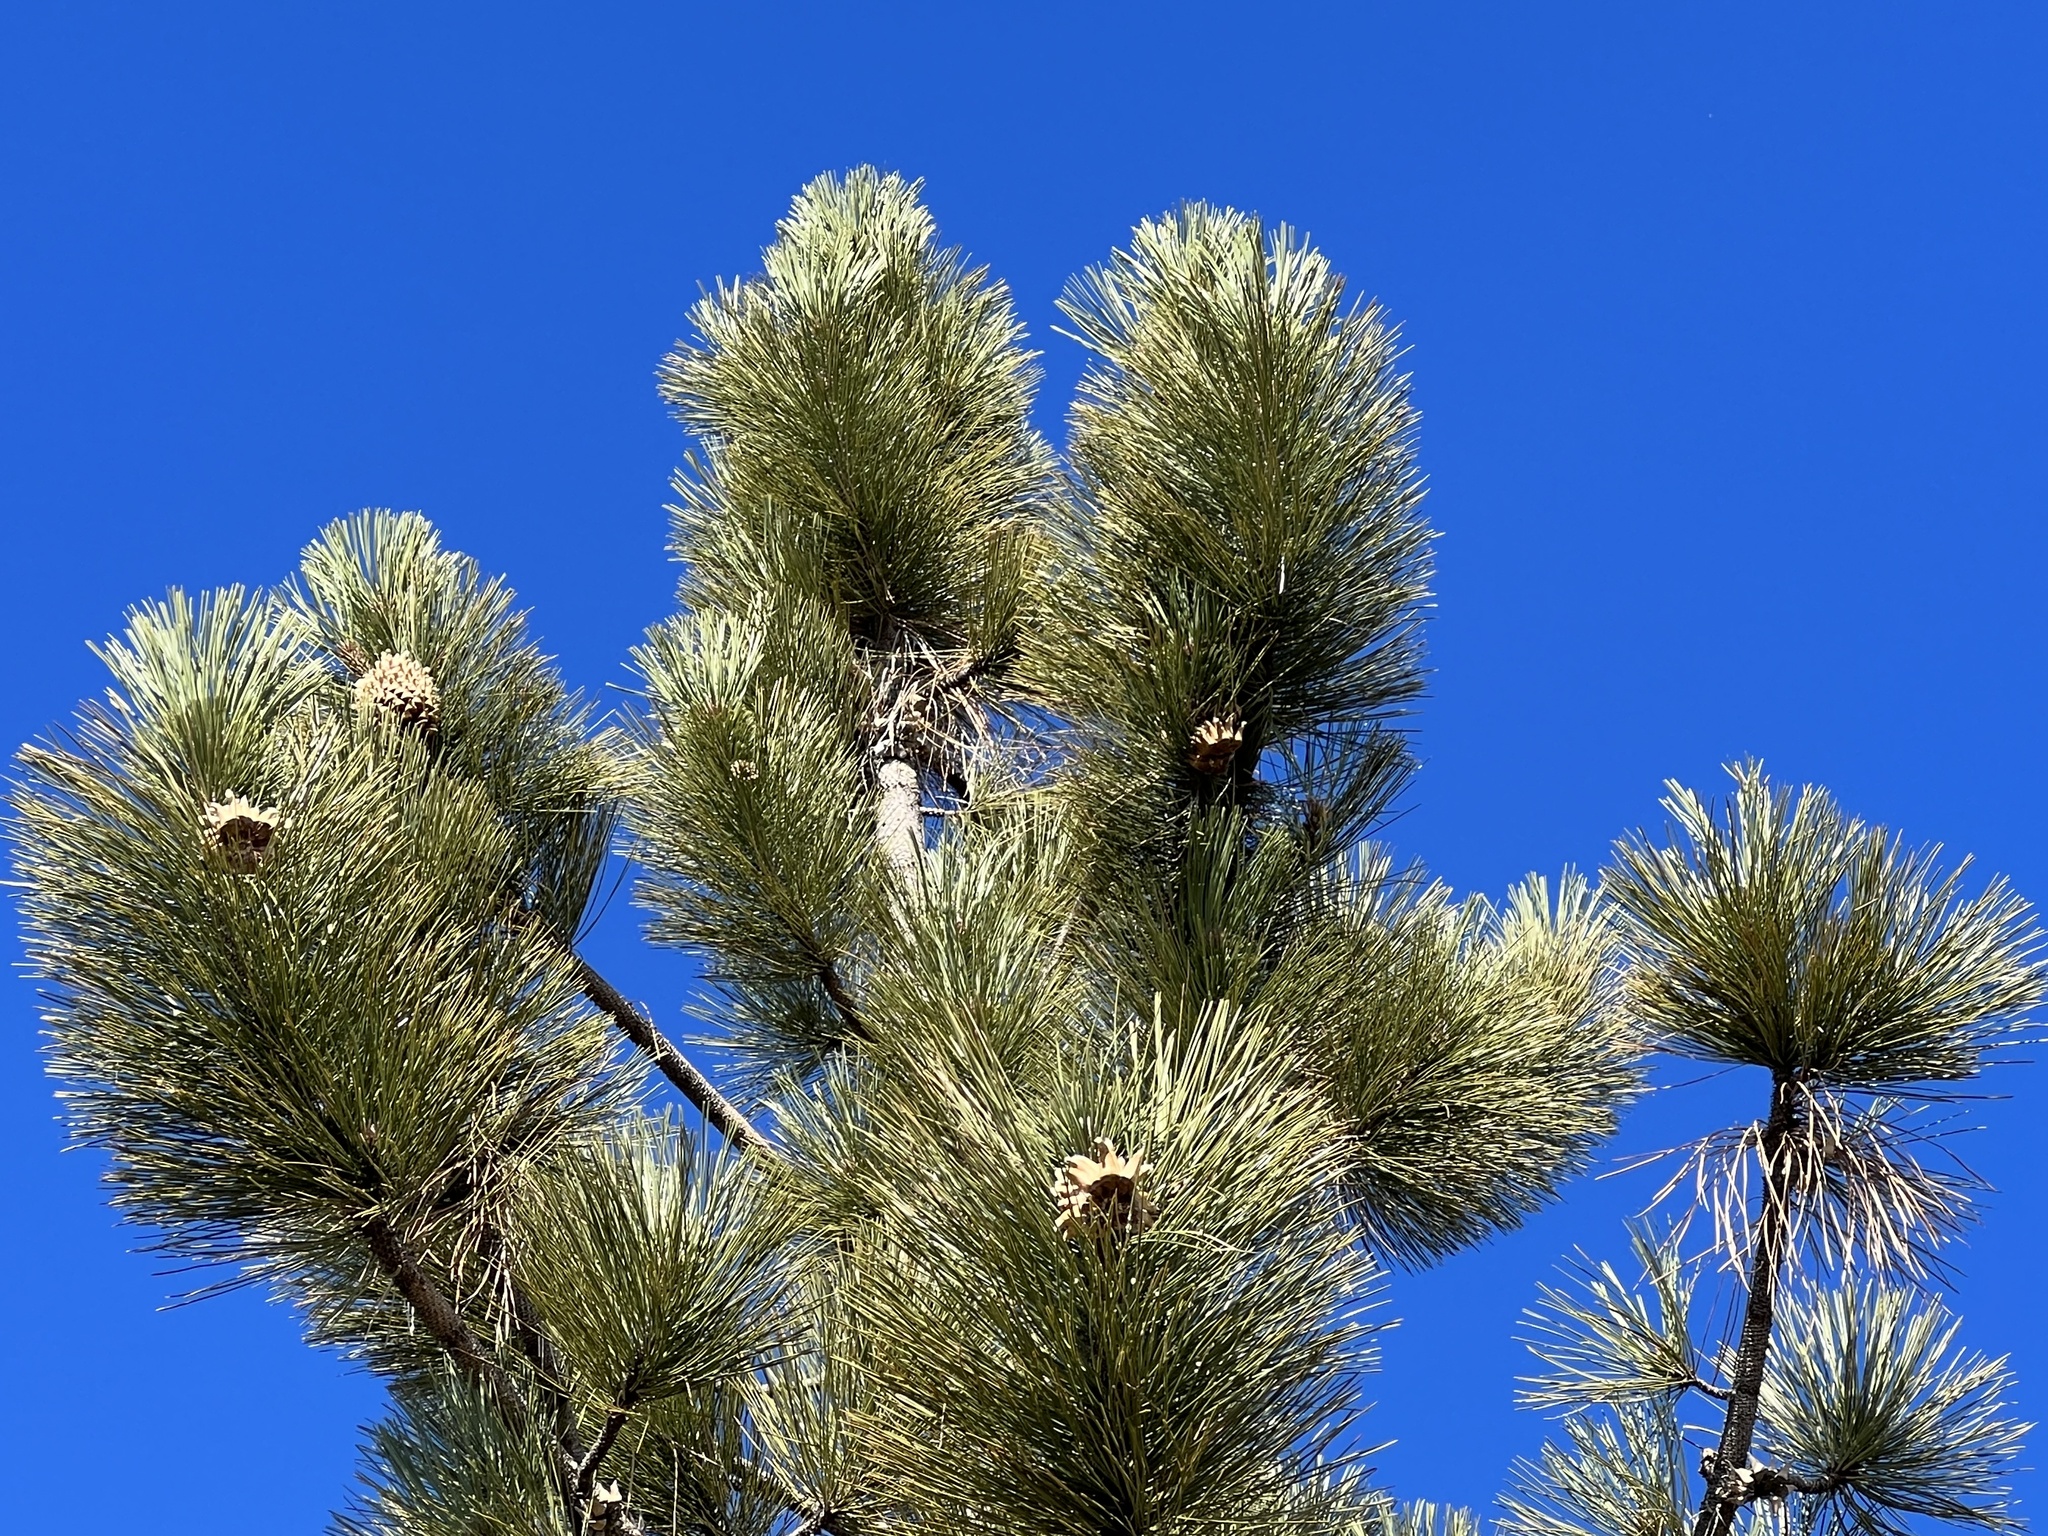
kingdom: Plantae
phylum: Tracheophyta
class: Pinopsida
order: Pinales
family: Pinaceae
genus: Pinus
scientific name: Pinus coulteri
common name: Coulter pine
